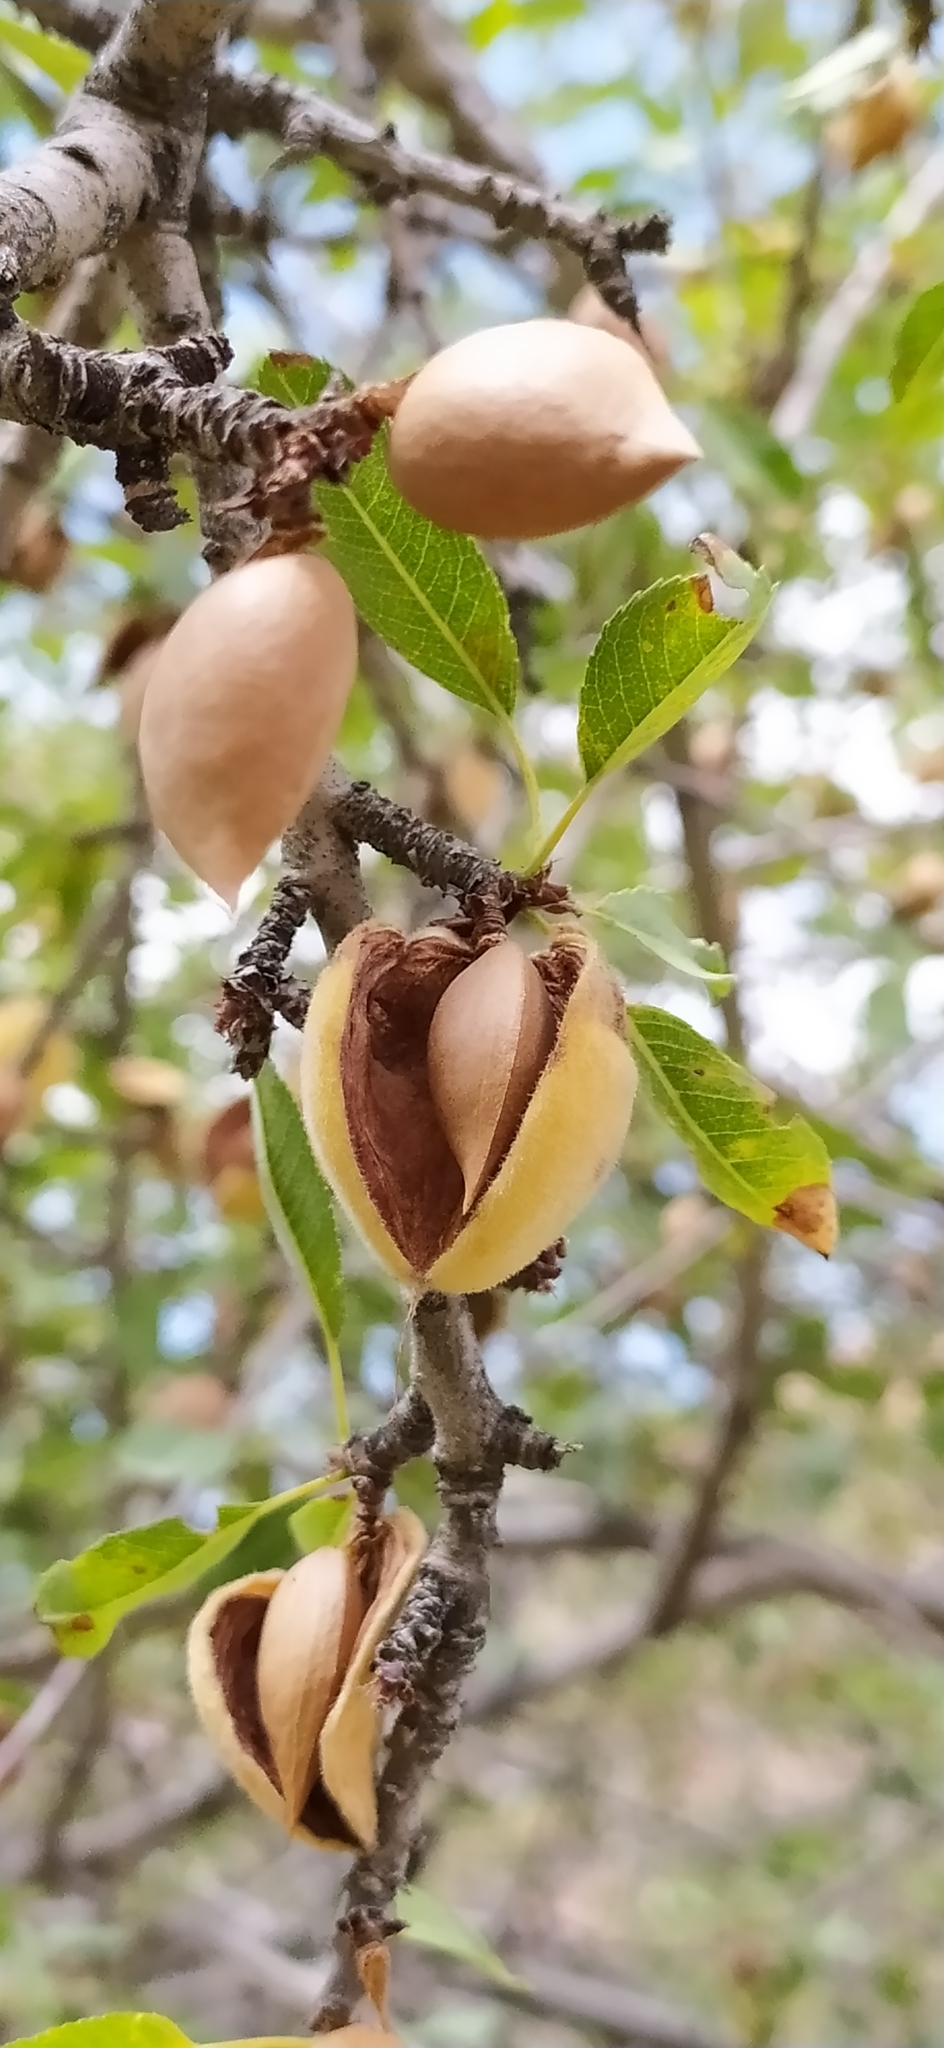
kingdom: Plantae
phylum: Tracheophyta
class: Magnoliopsida
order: Rosales
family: Rosaceae
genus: Prunus
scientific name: Prunus bucharica
